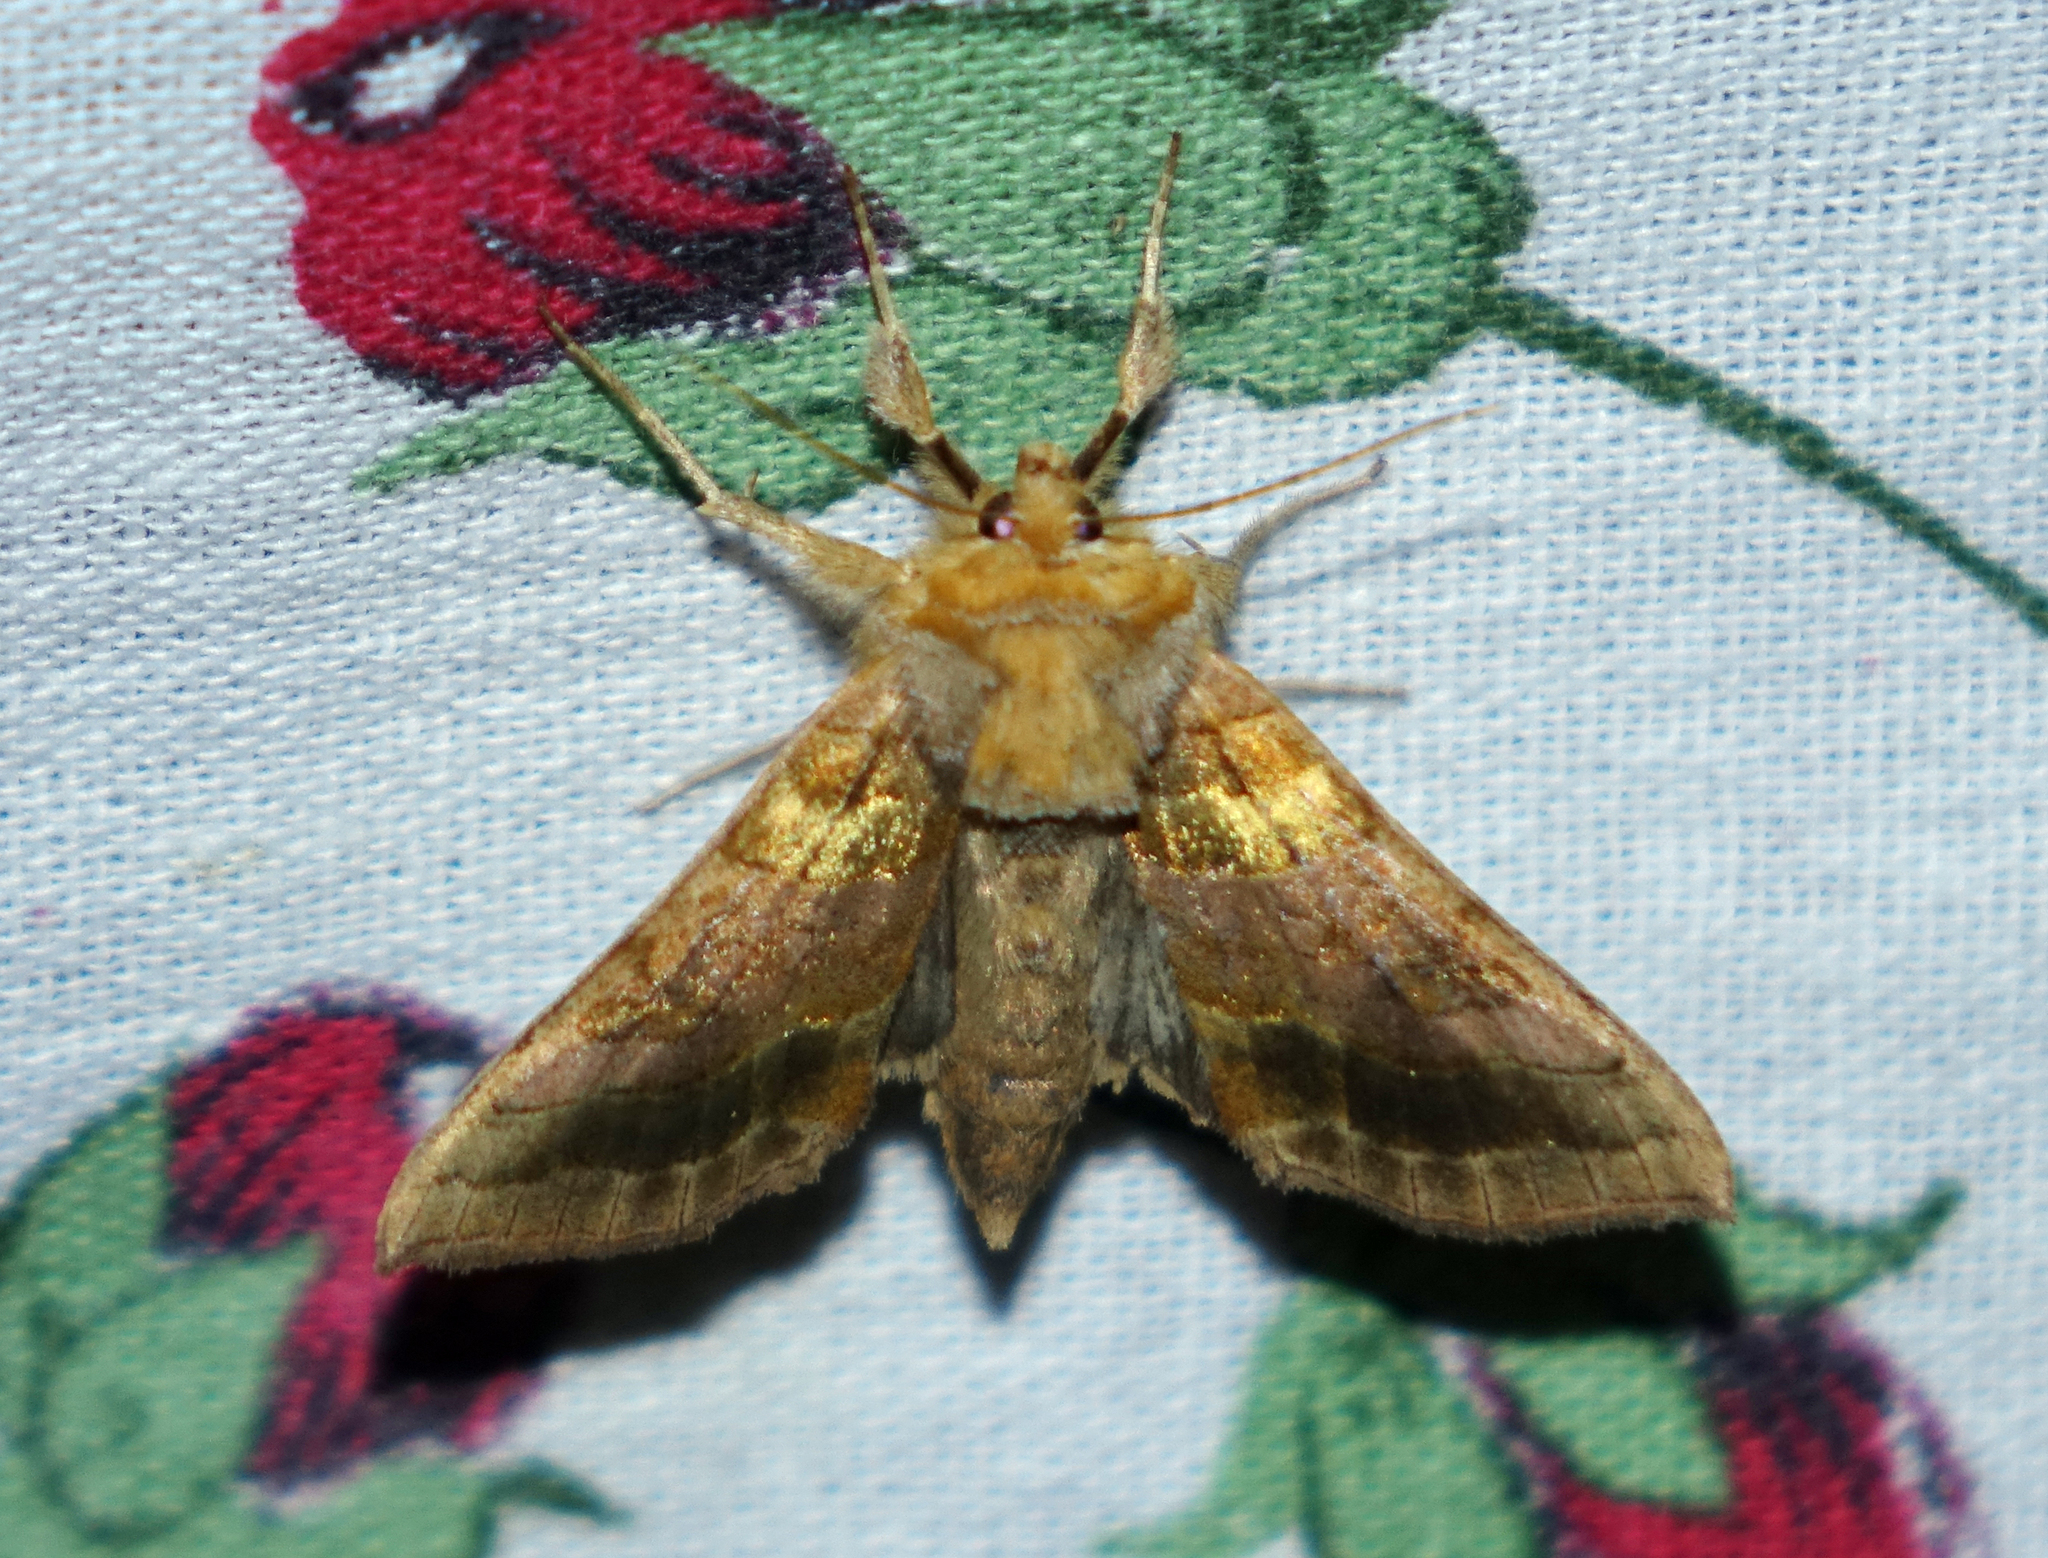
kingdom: Animalia
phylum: Arthropoda
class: Insecta
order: Lepidoptera
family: Noctuidae
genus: Diachrysia
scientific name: Diachrysia chrysitis
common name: Burnished brass
